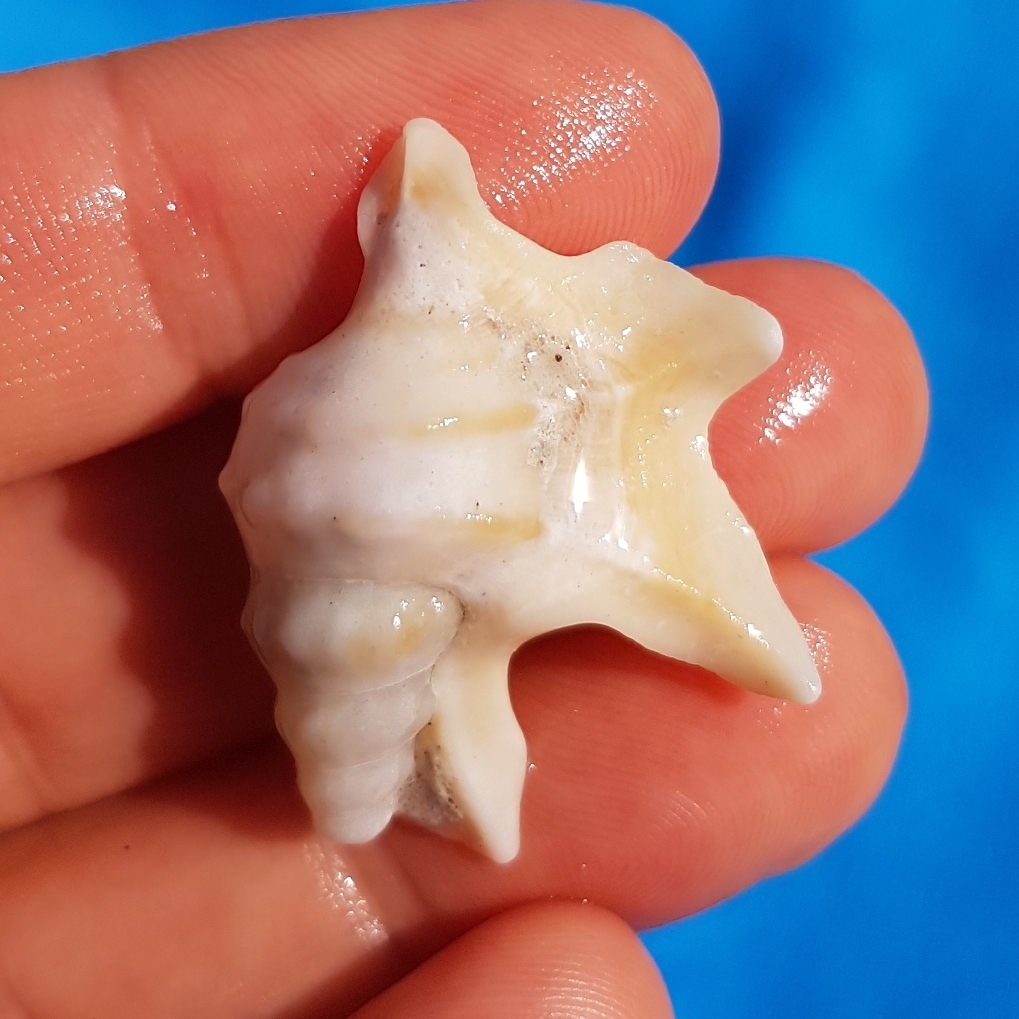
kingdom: Animalia
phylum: Mollusca
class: Gastropoda
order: Littorinimorpha
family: Aporrhaidae
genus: Aporrhais
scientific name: Aporrhais pespelecani
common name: Common pelican’s foot
